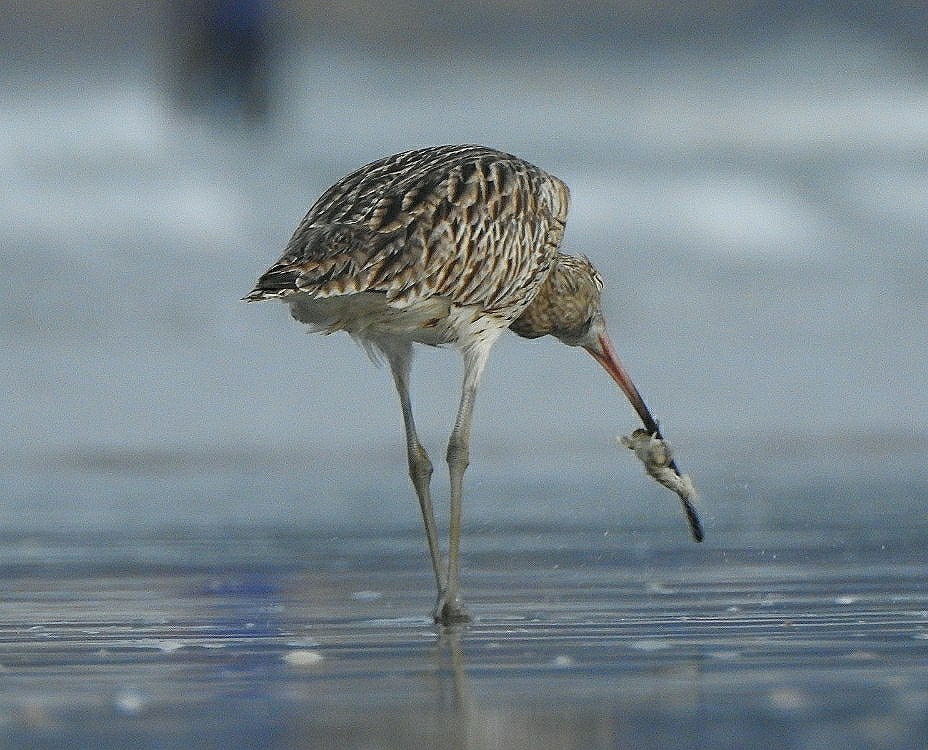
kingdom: Animalia
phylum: Chordata
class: Aves
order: Charadriiformes
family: Scolopacidae
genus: Numenius
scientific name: Numenius arquata
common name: Eurasian curlew
